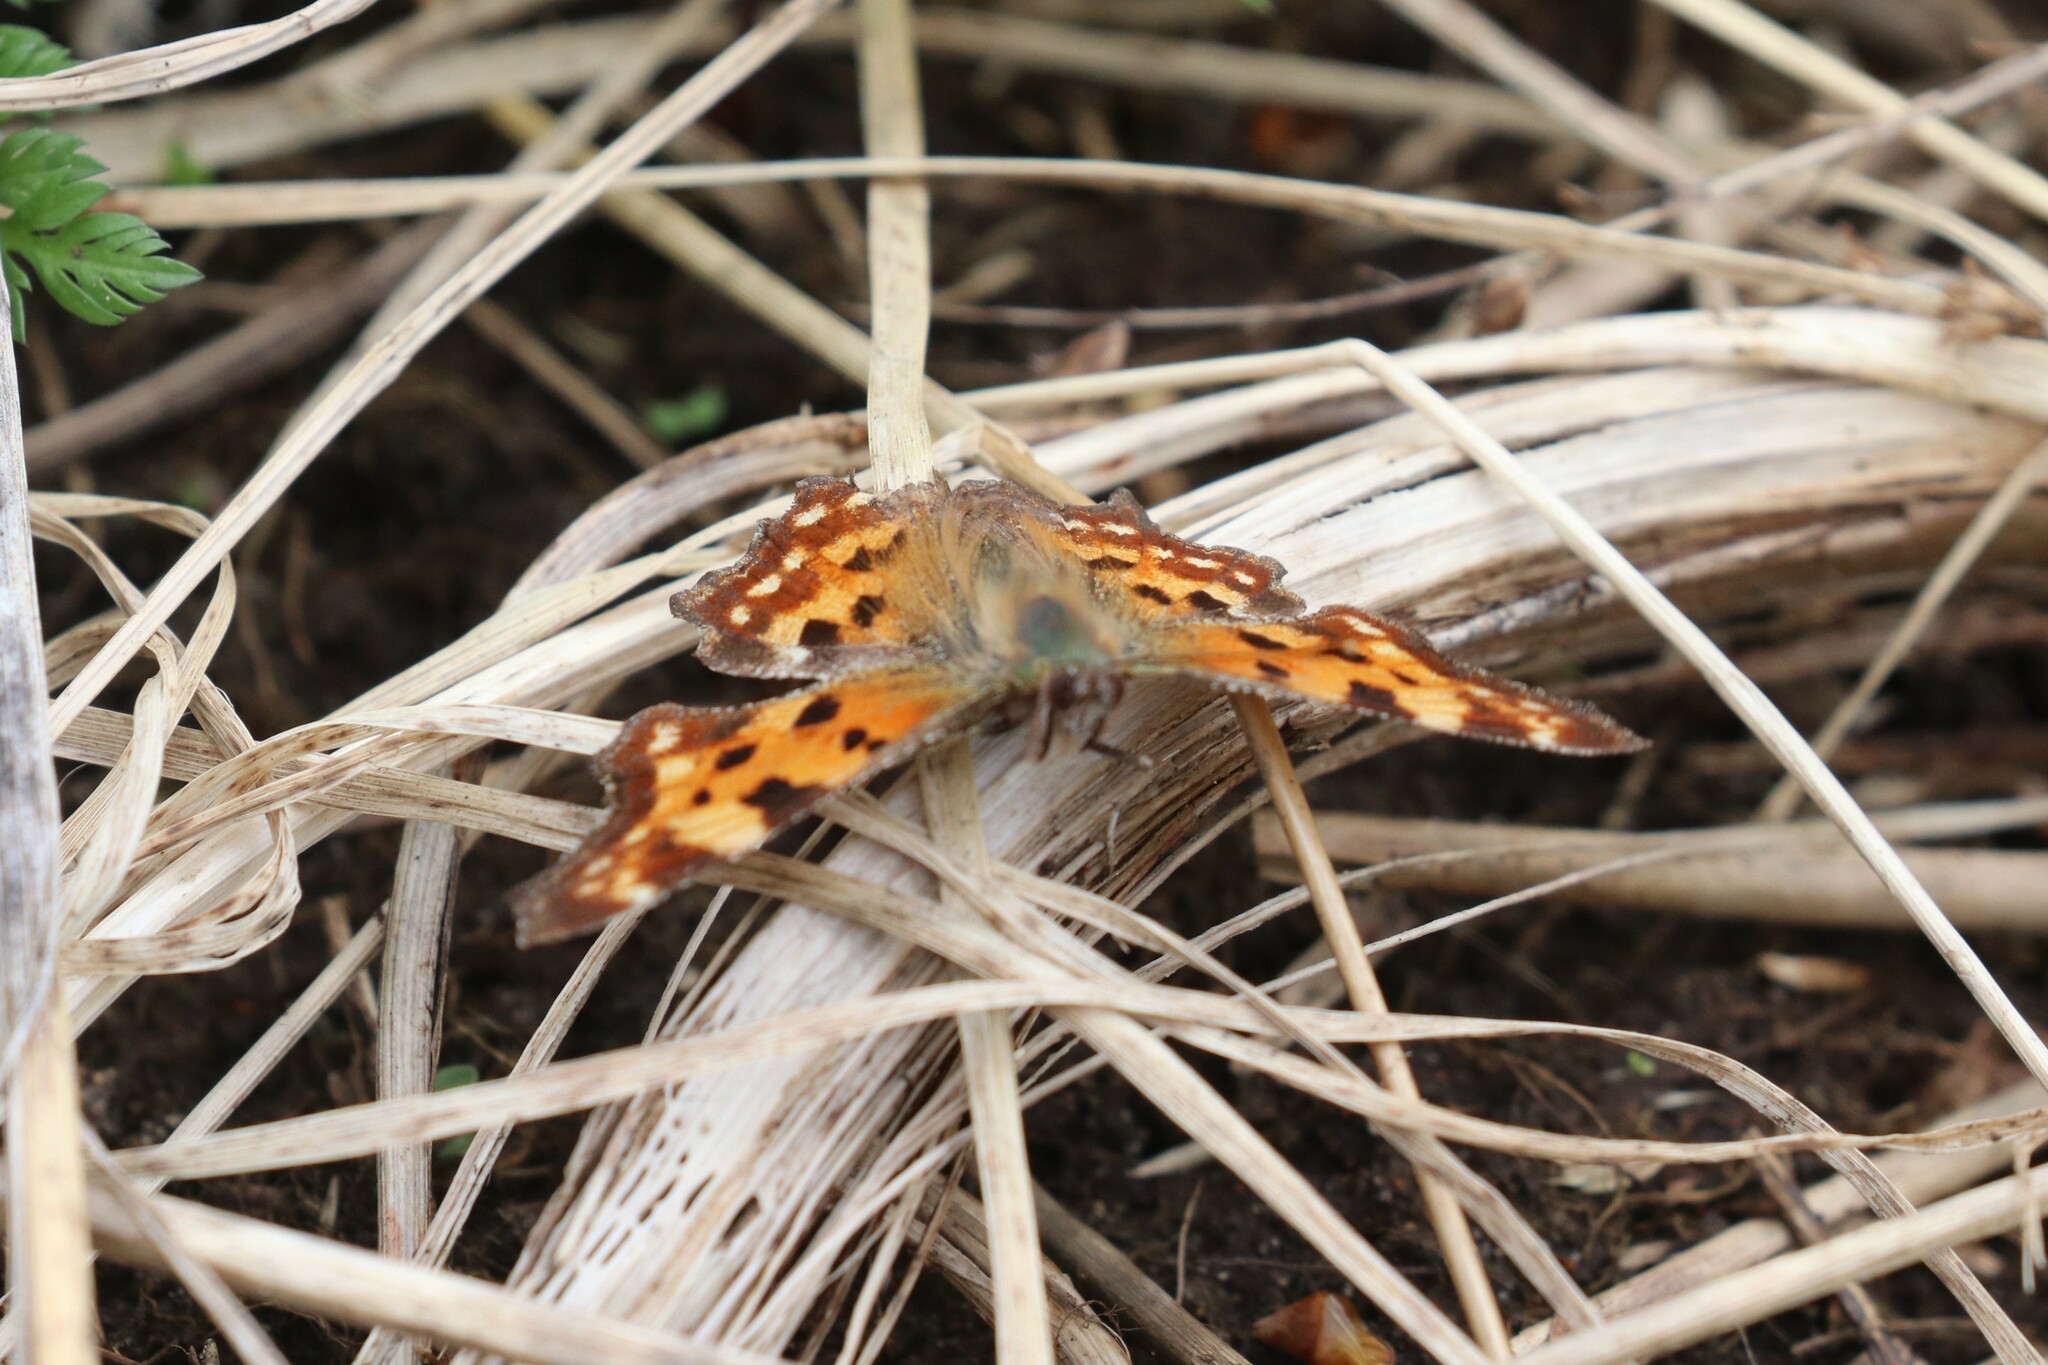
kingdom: Animalia
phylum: Arthropoda
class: Insecta
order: Lepidoptera
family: Nymphalidae
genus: Polygonia
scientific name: Polygonia c-album
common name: Comma
